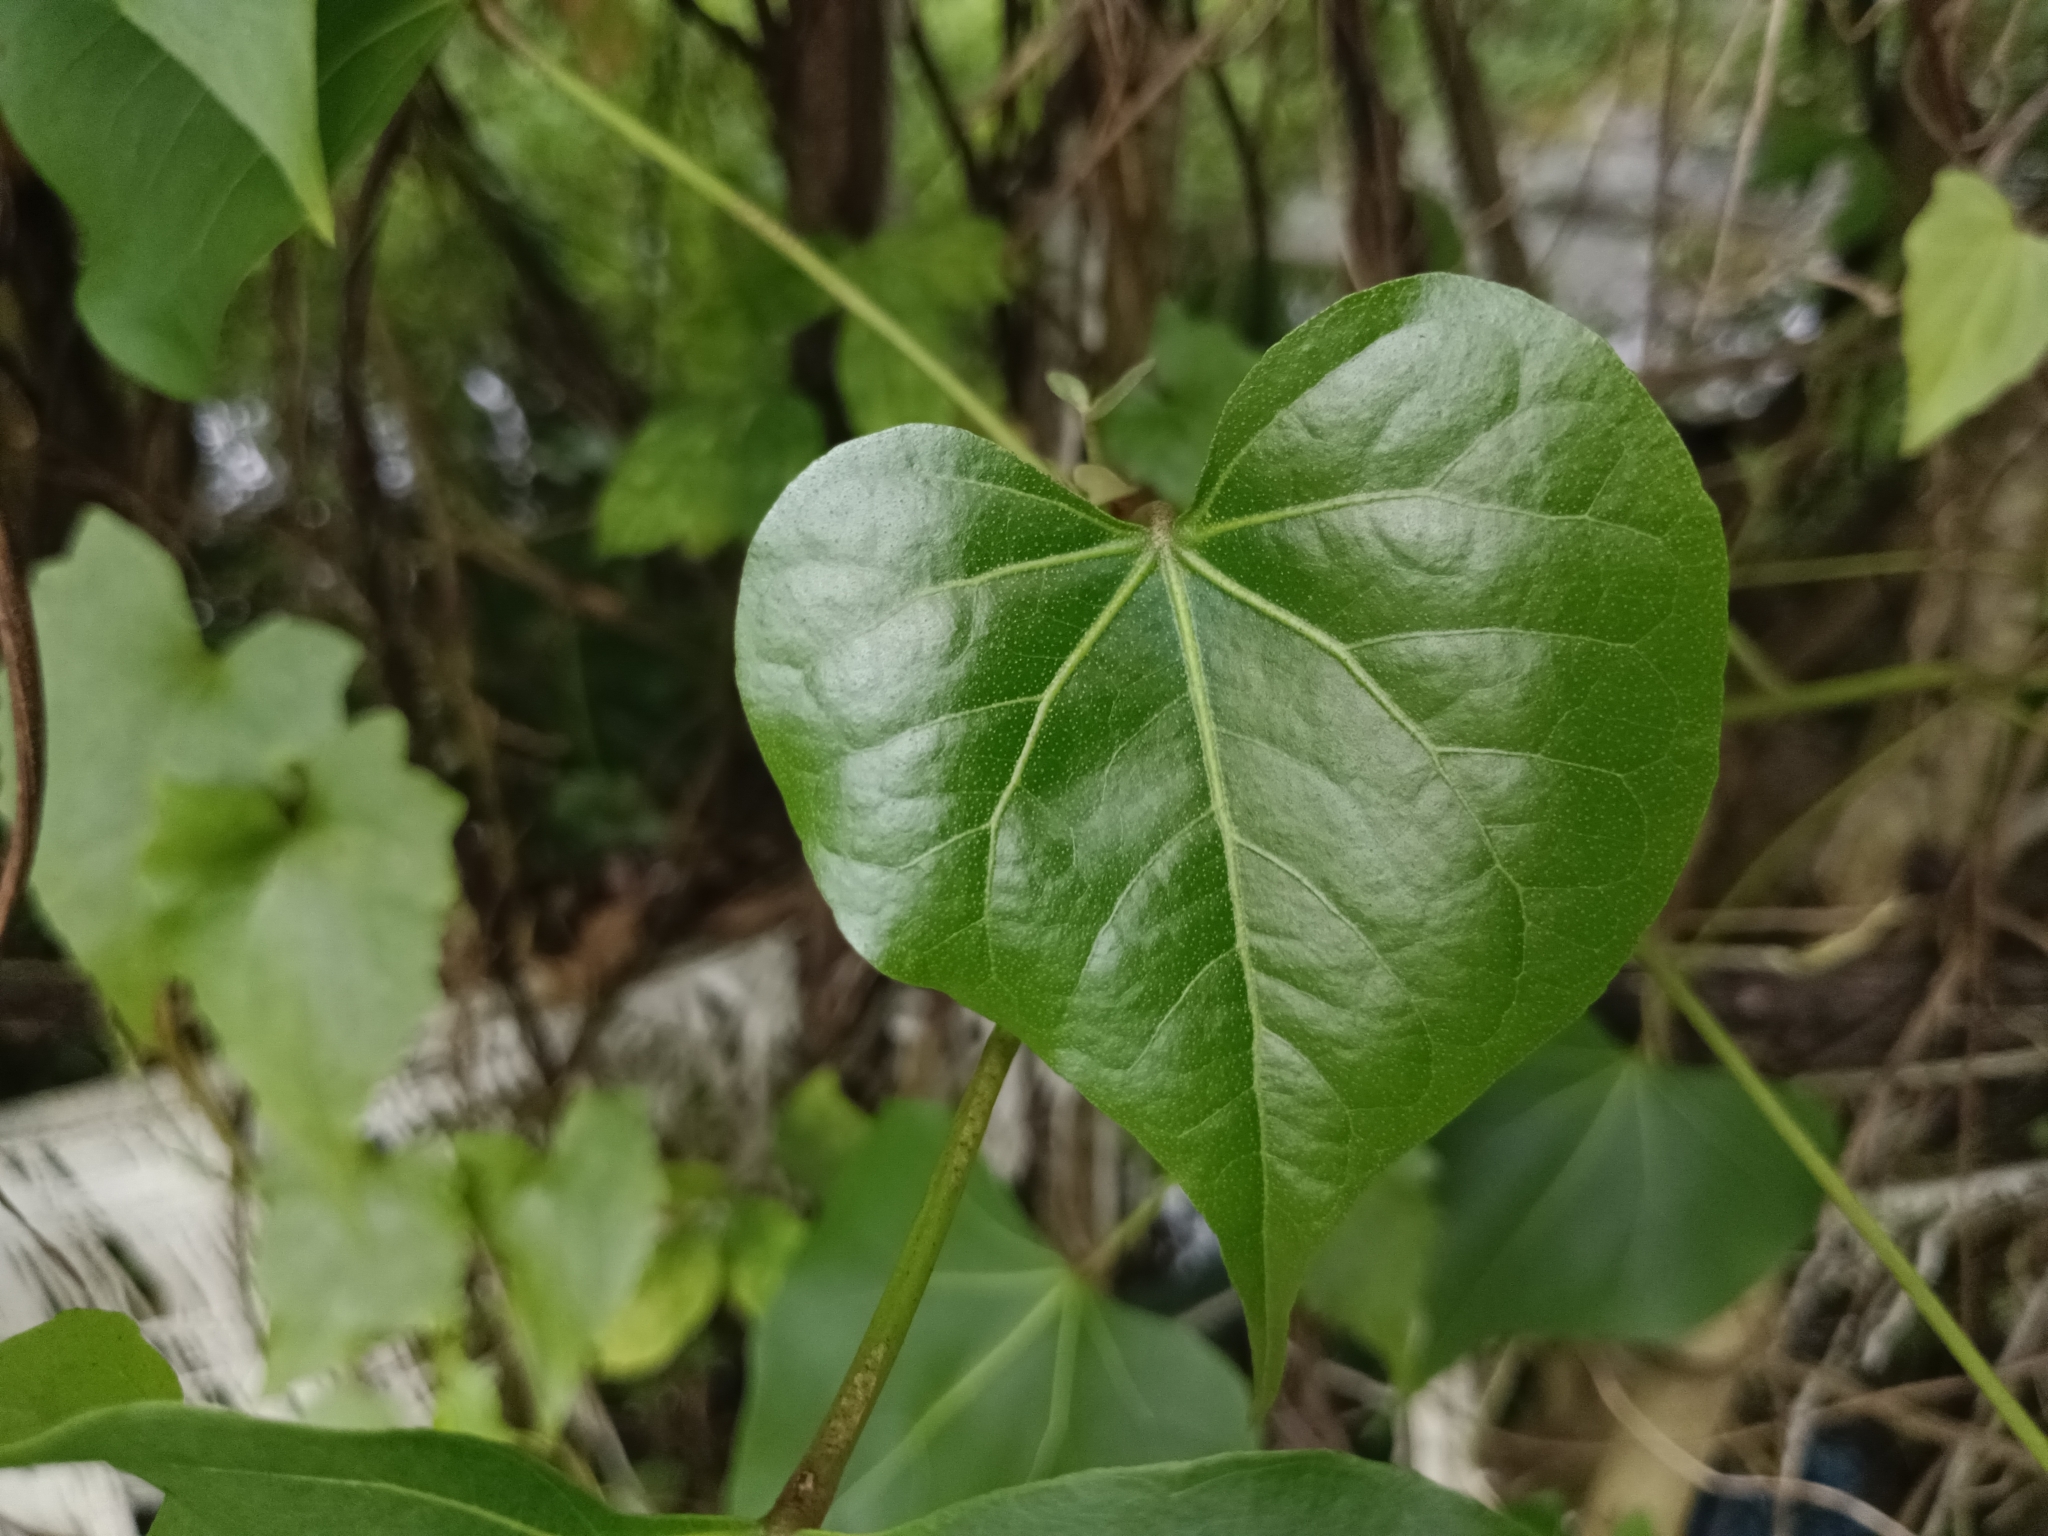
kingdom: Plantae
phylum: Tracheophyta
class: Magnoliopsida
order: Malvales
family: Malvaceae
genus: Thespesia
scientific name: Thespesia populnea
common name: Seaside mahoe
